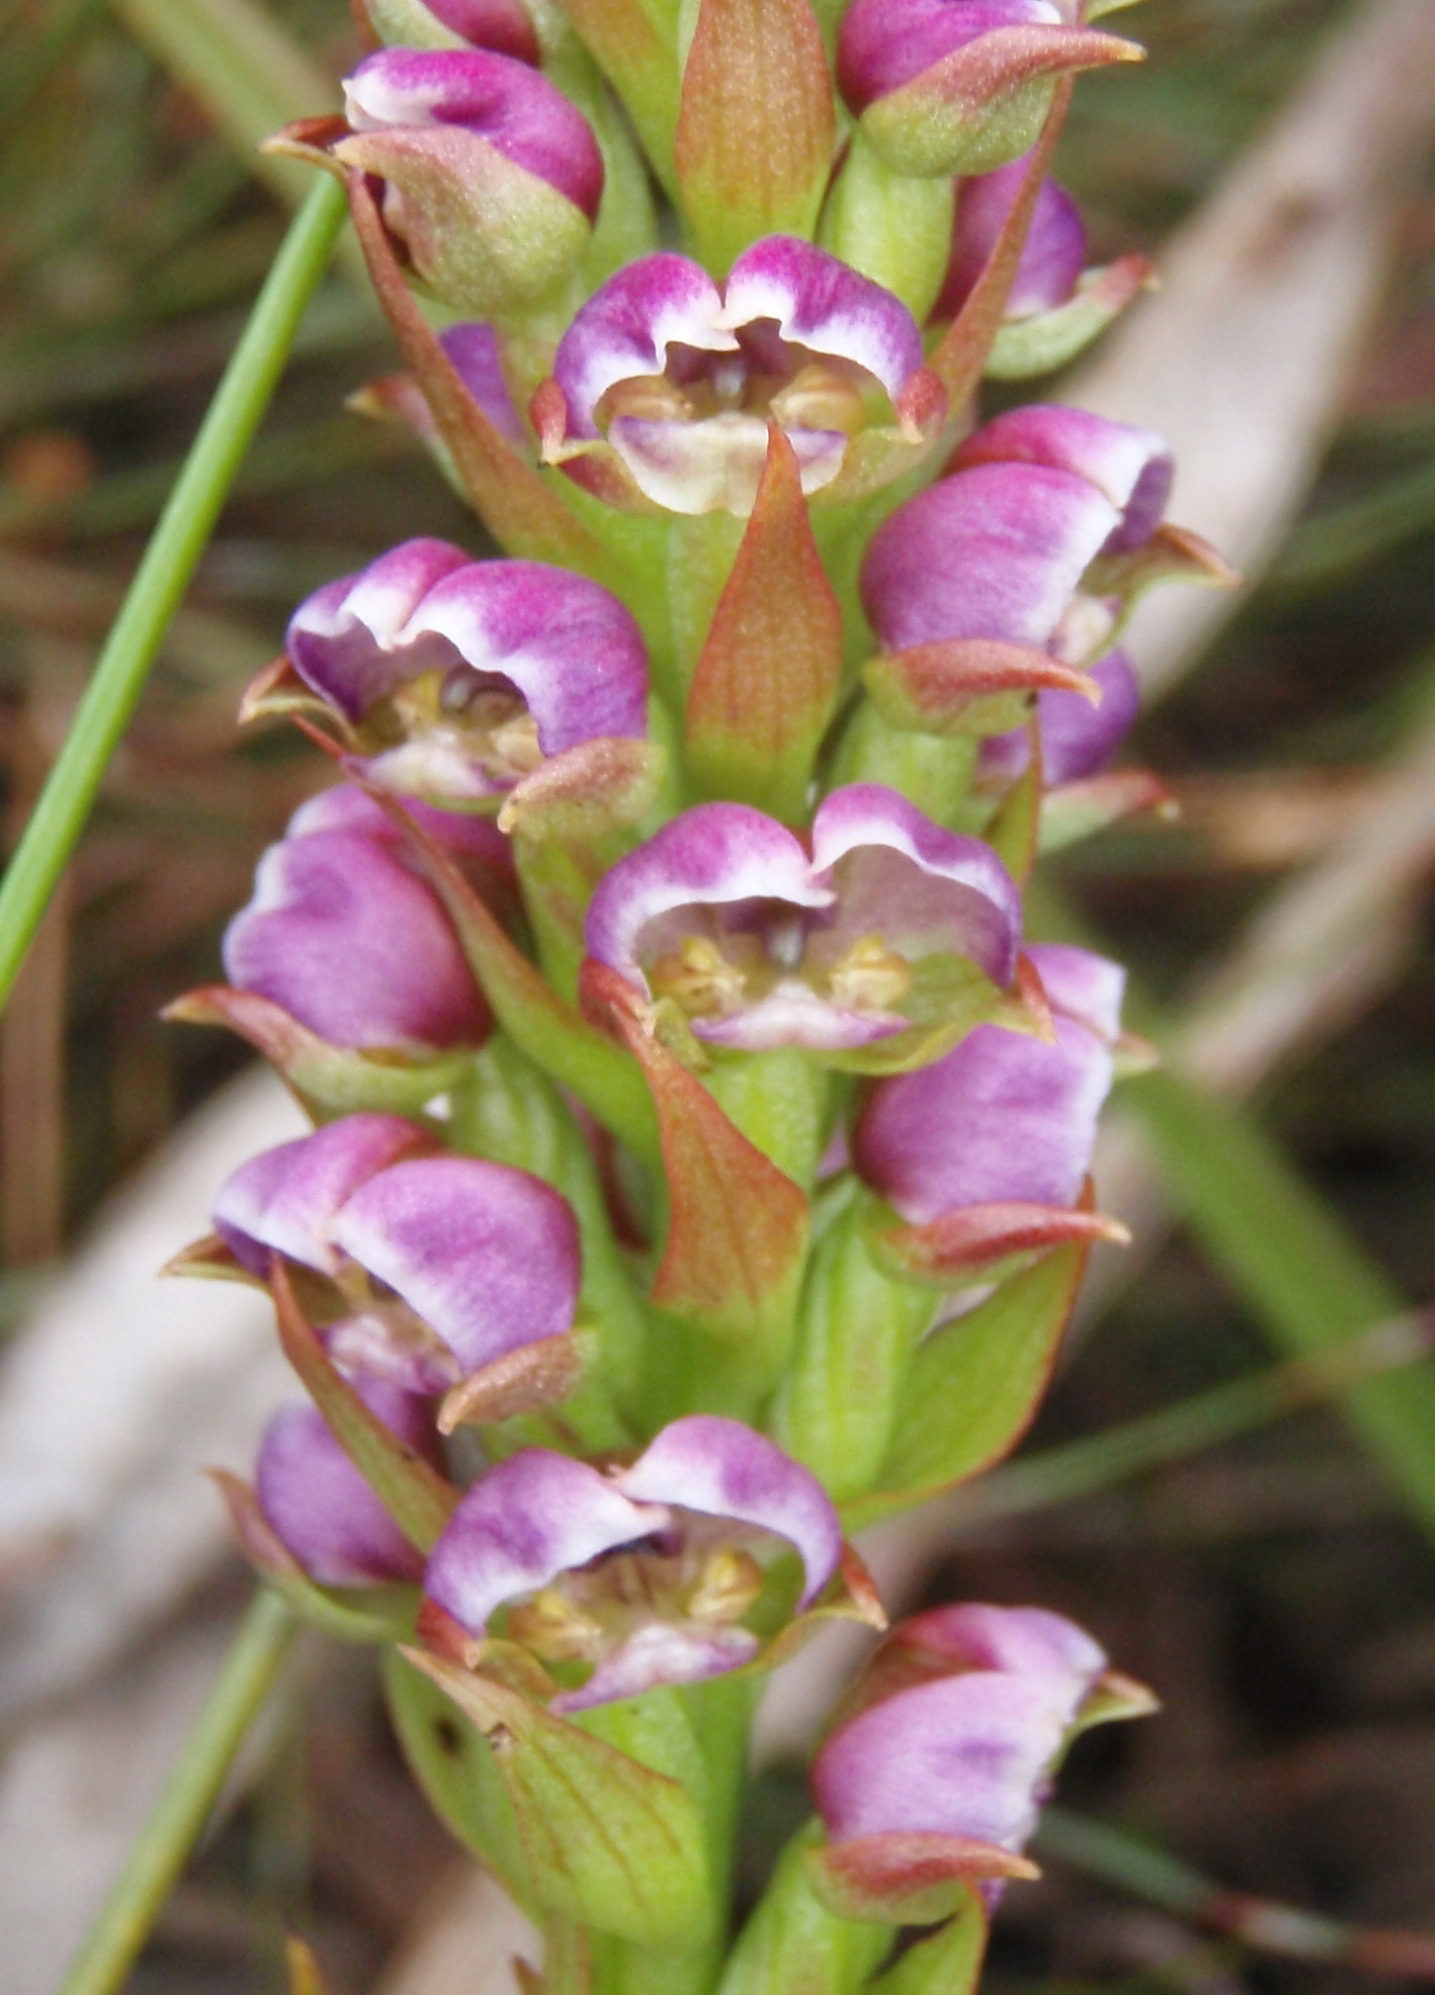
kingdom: Plantae
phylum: Tracheophyta
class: Liliopsida
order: Asparagales
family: Orchidaceae
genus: Evotella
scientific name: Evotella carnosa
